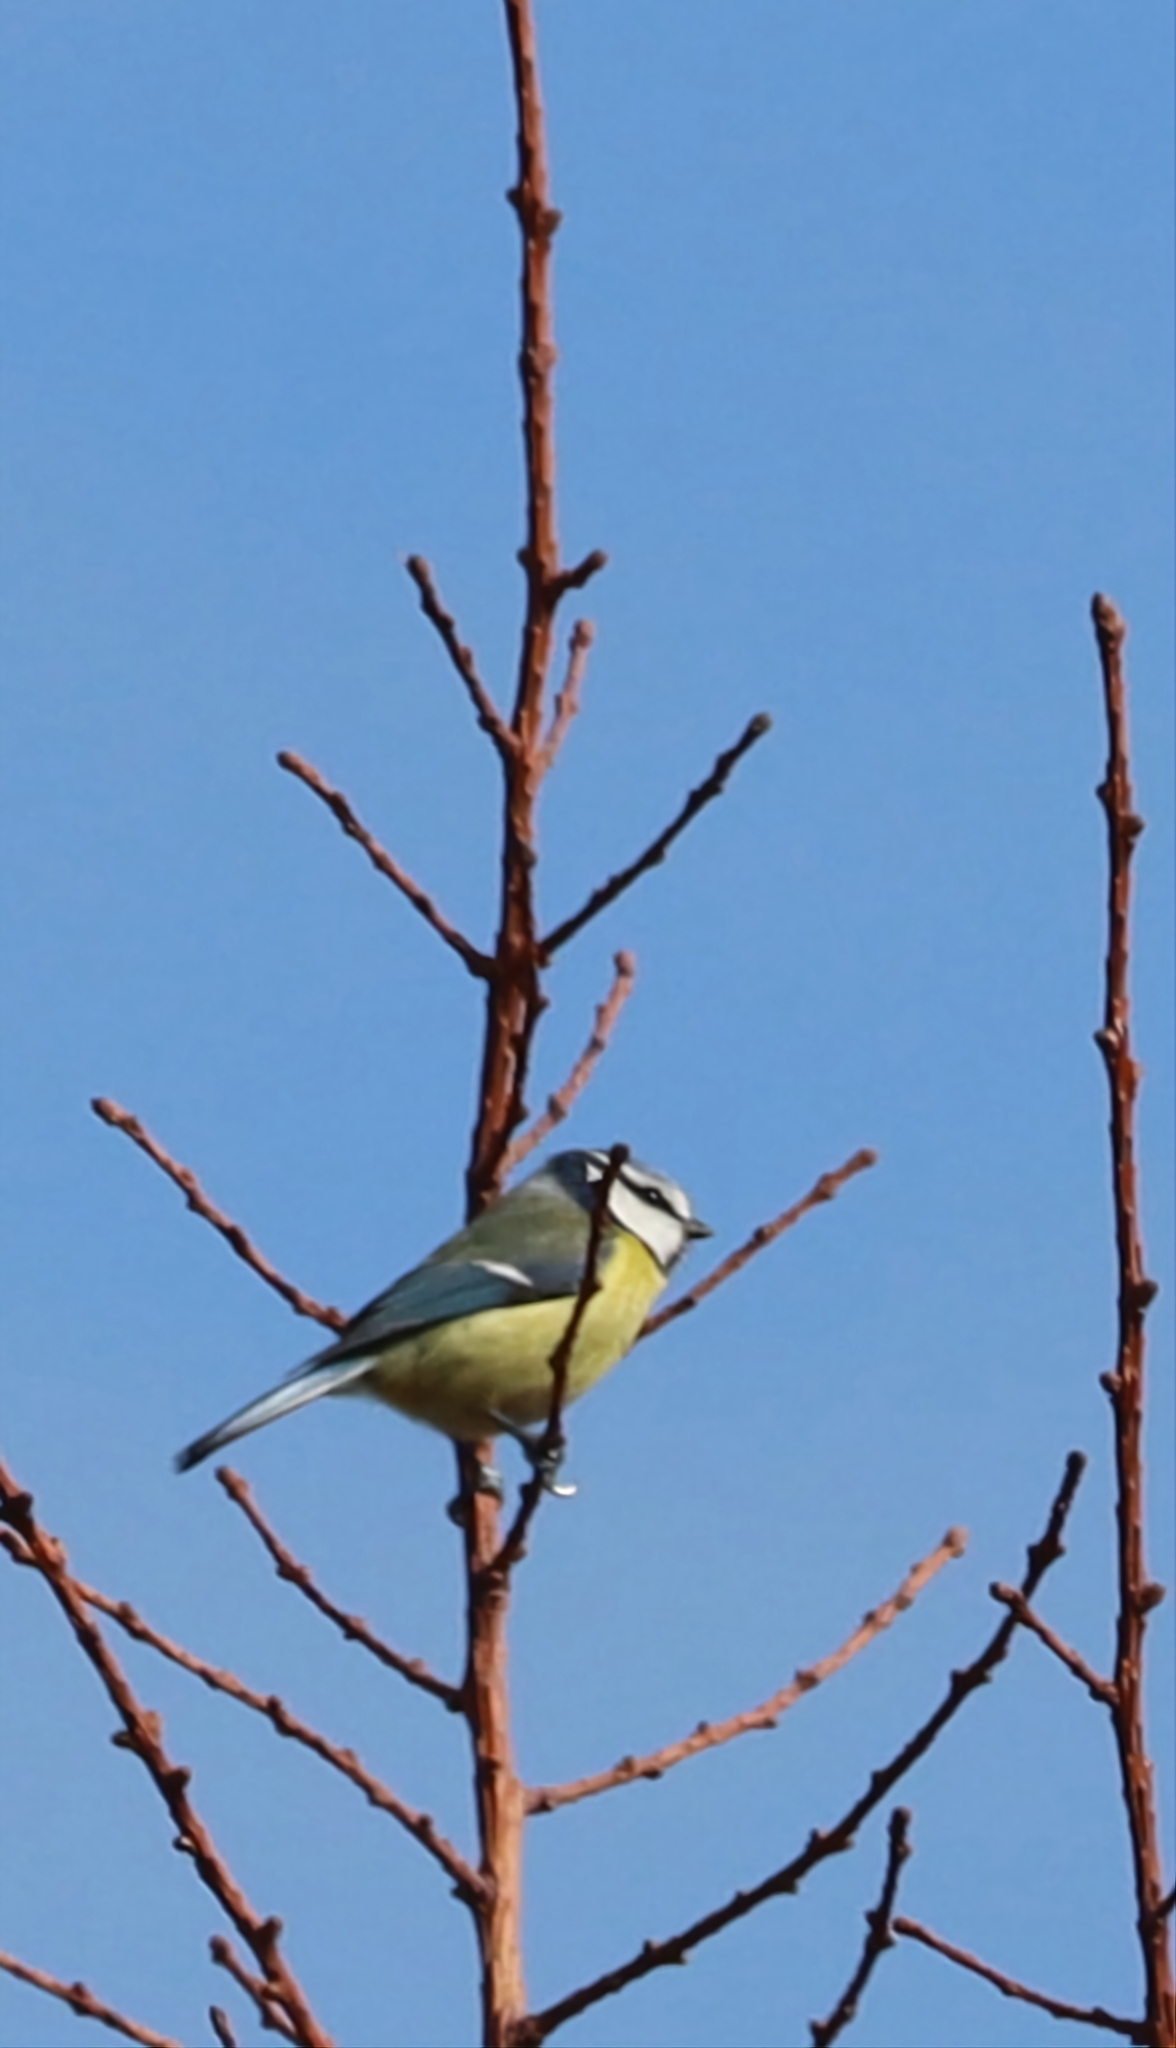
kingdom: Animalia
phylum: Chordata
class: Aves
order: Passeriformes
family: Paridae
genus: Cyanistes
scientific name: Cyanistes caeruleus
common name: Eurasian blue tit
